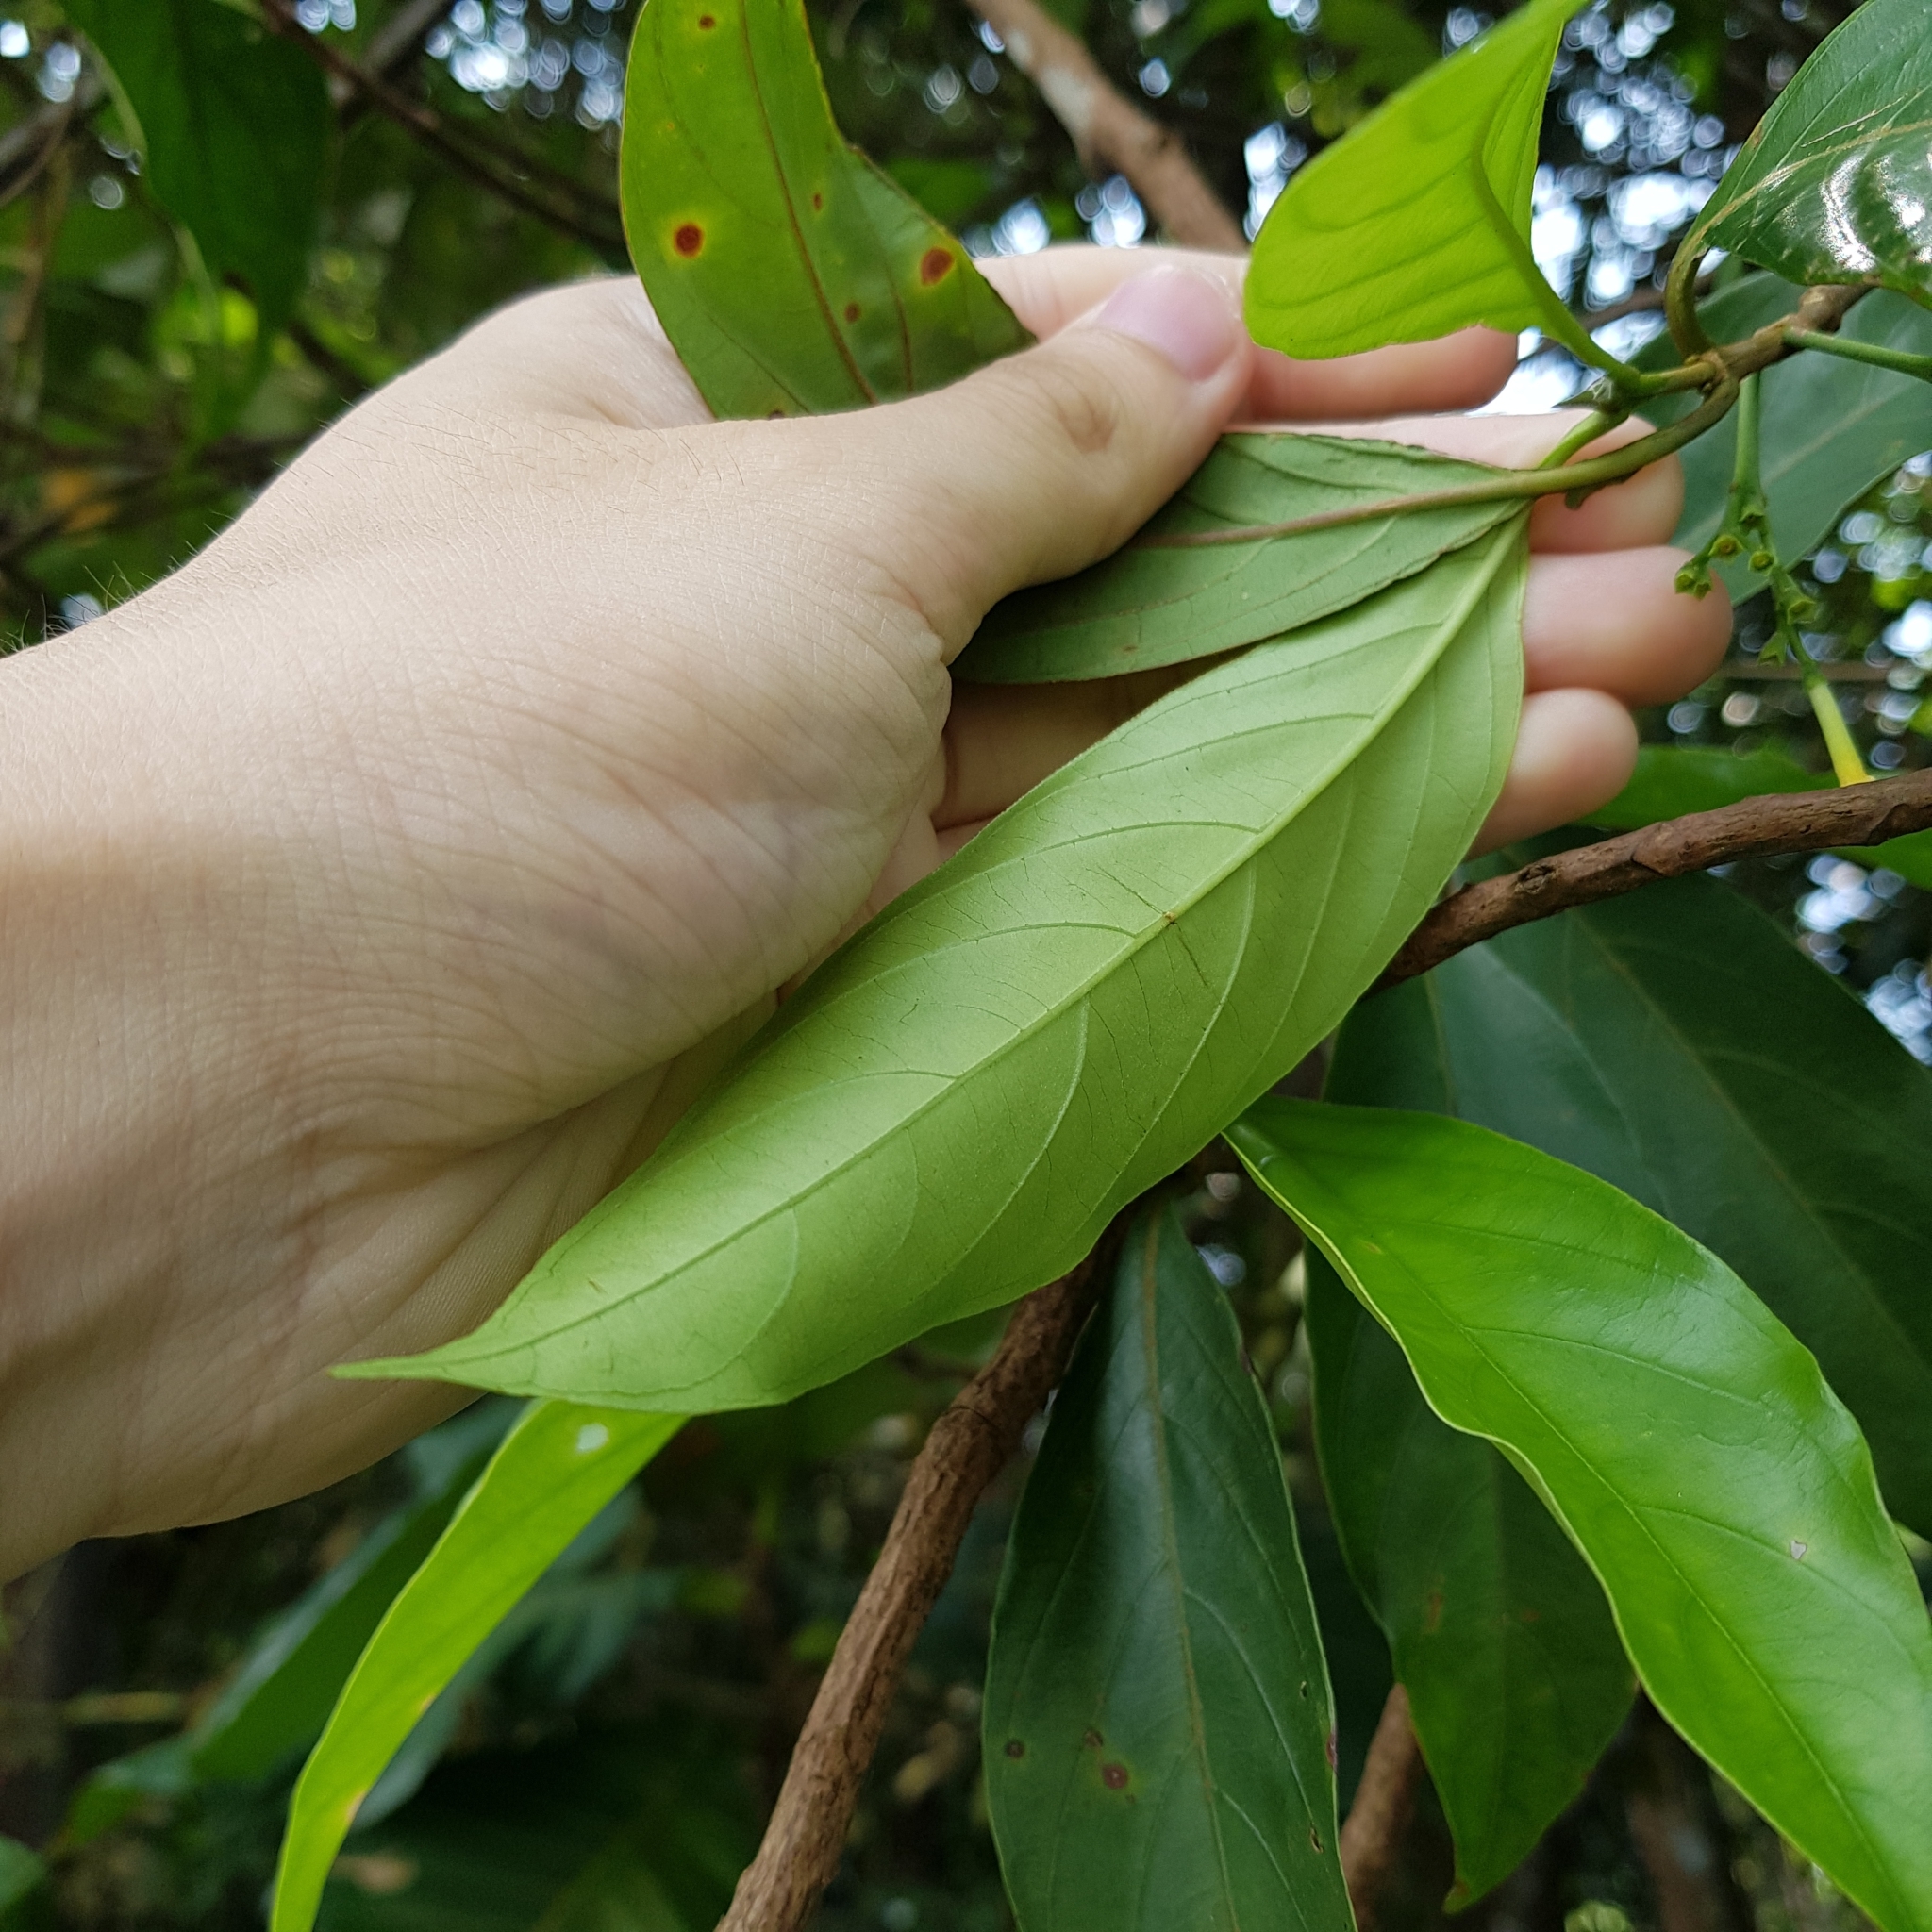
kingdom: Plantae
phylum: Tracheophyta
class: Magnoliopsida
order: Gentianales
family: Rubiaceae
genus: Timonius
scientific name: Timonius flavescens
